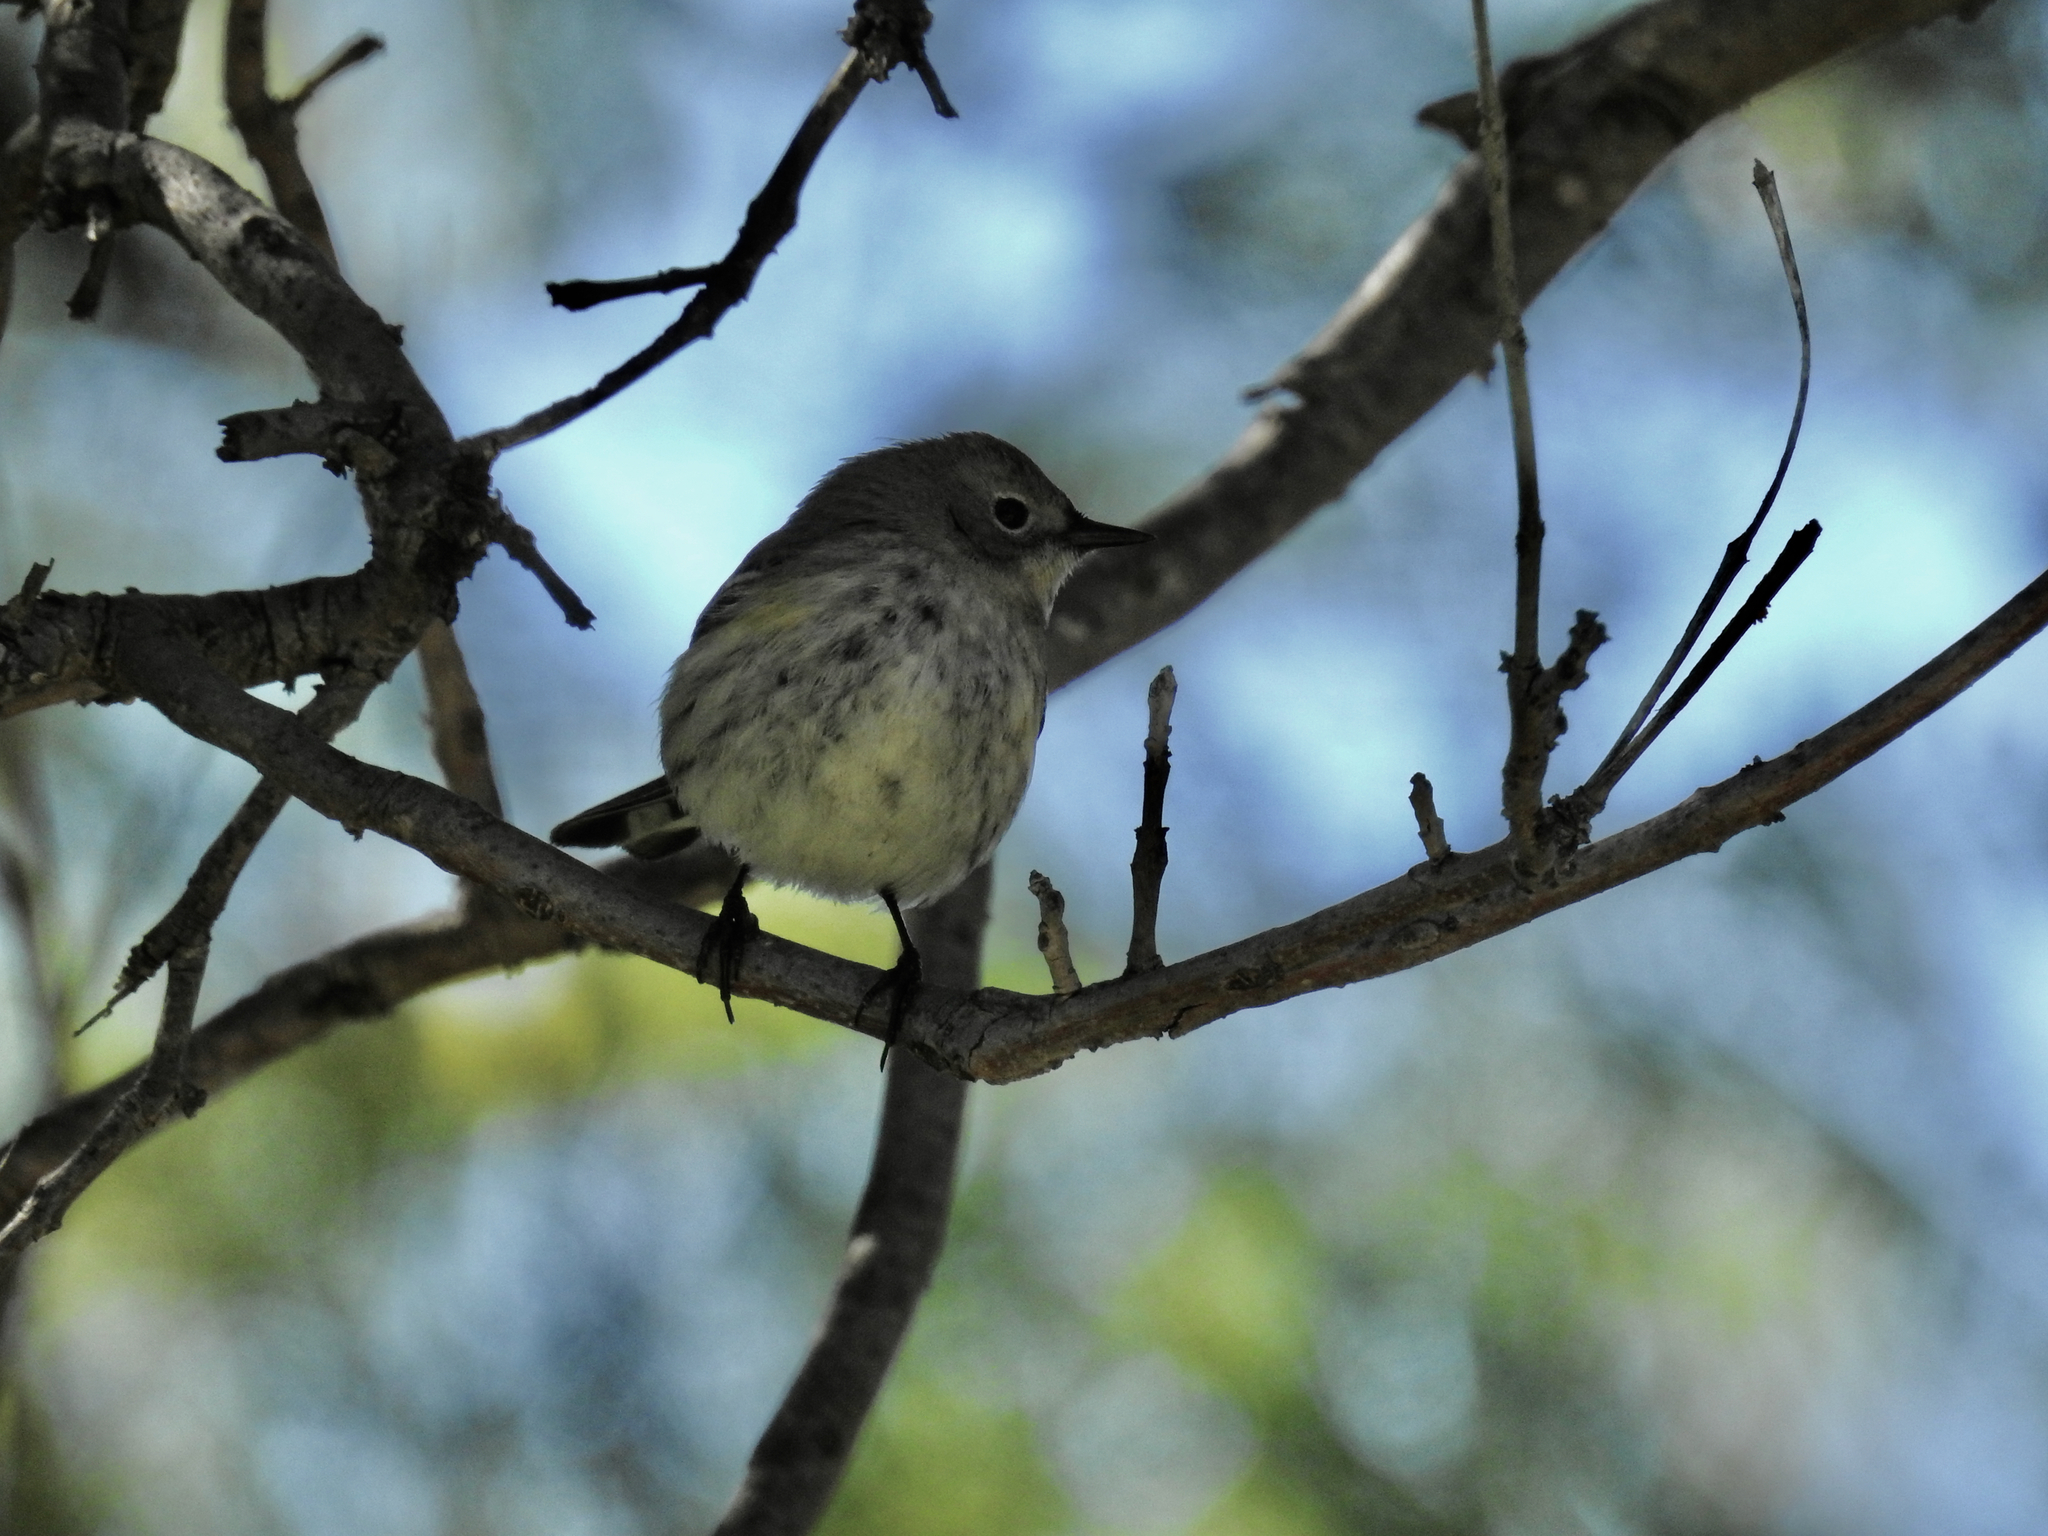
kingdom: Animalia
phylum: Chordata
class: Aves
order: Passeriformes
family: Parulidae
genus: Setophaga
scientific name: Setophaga coronata
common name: Myrtle warbler
